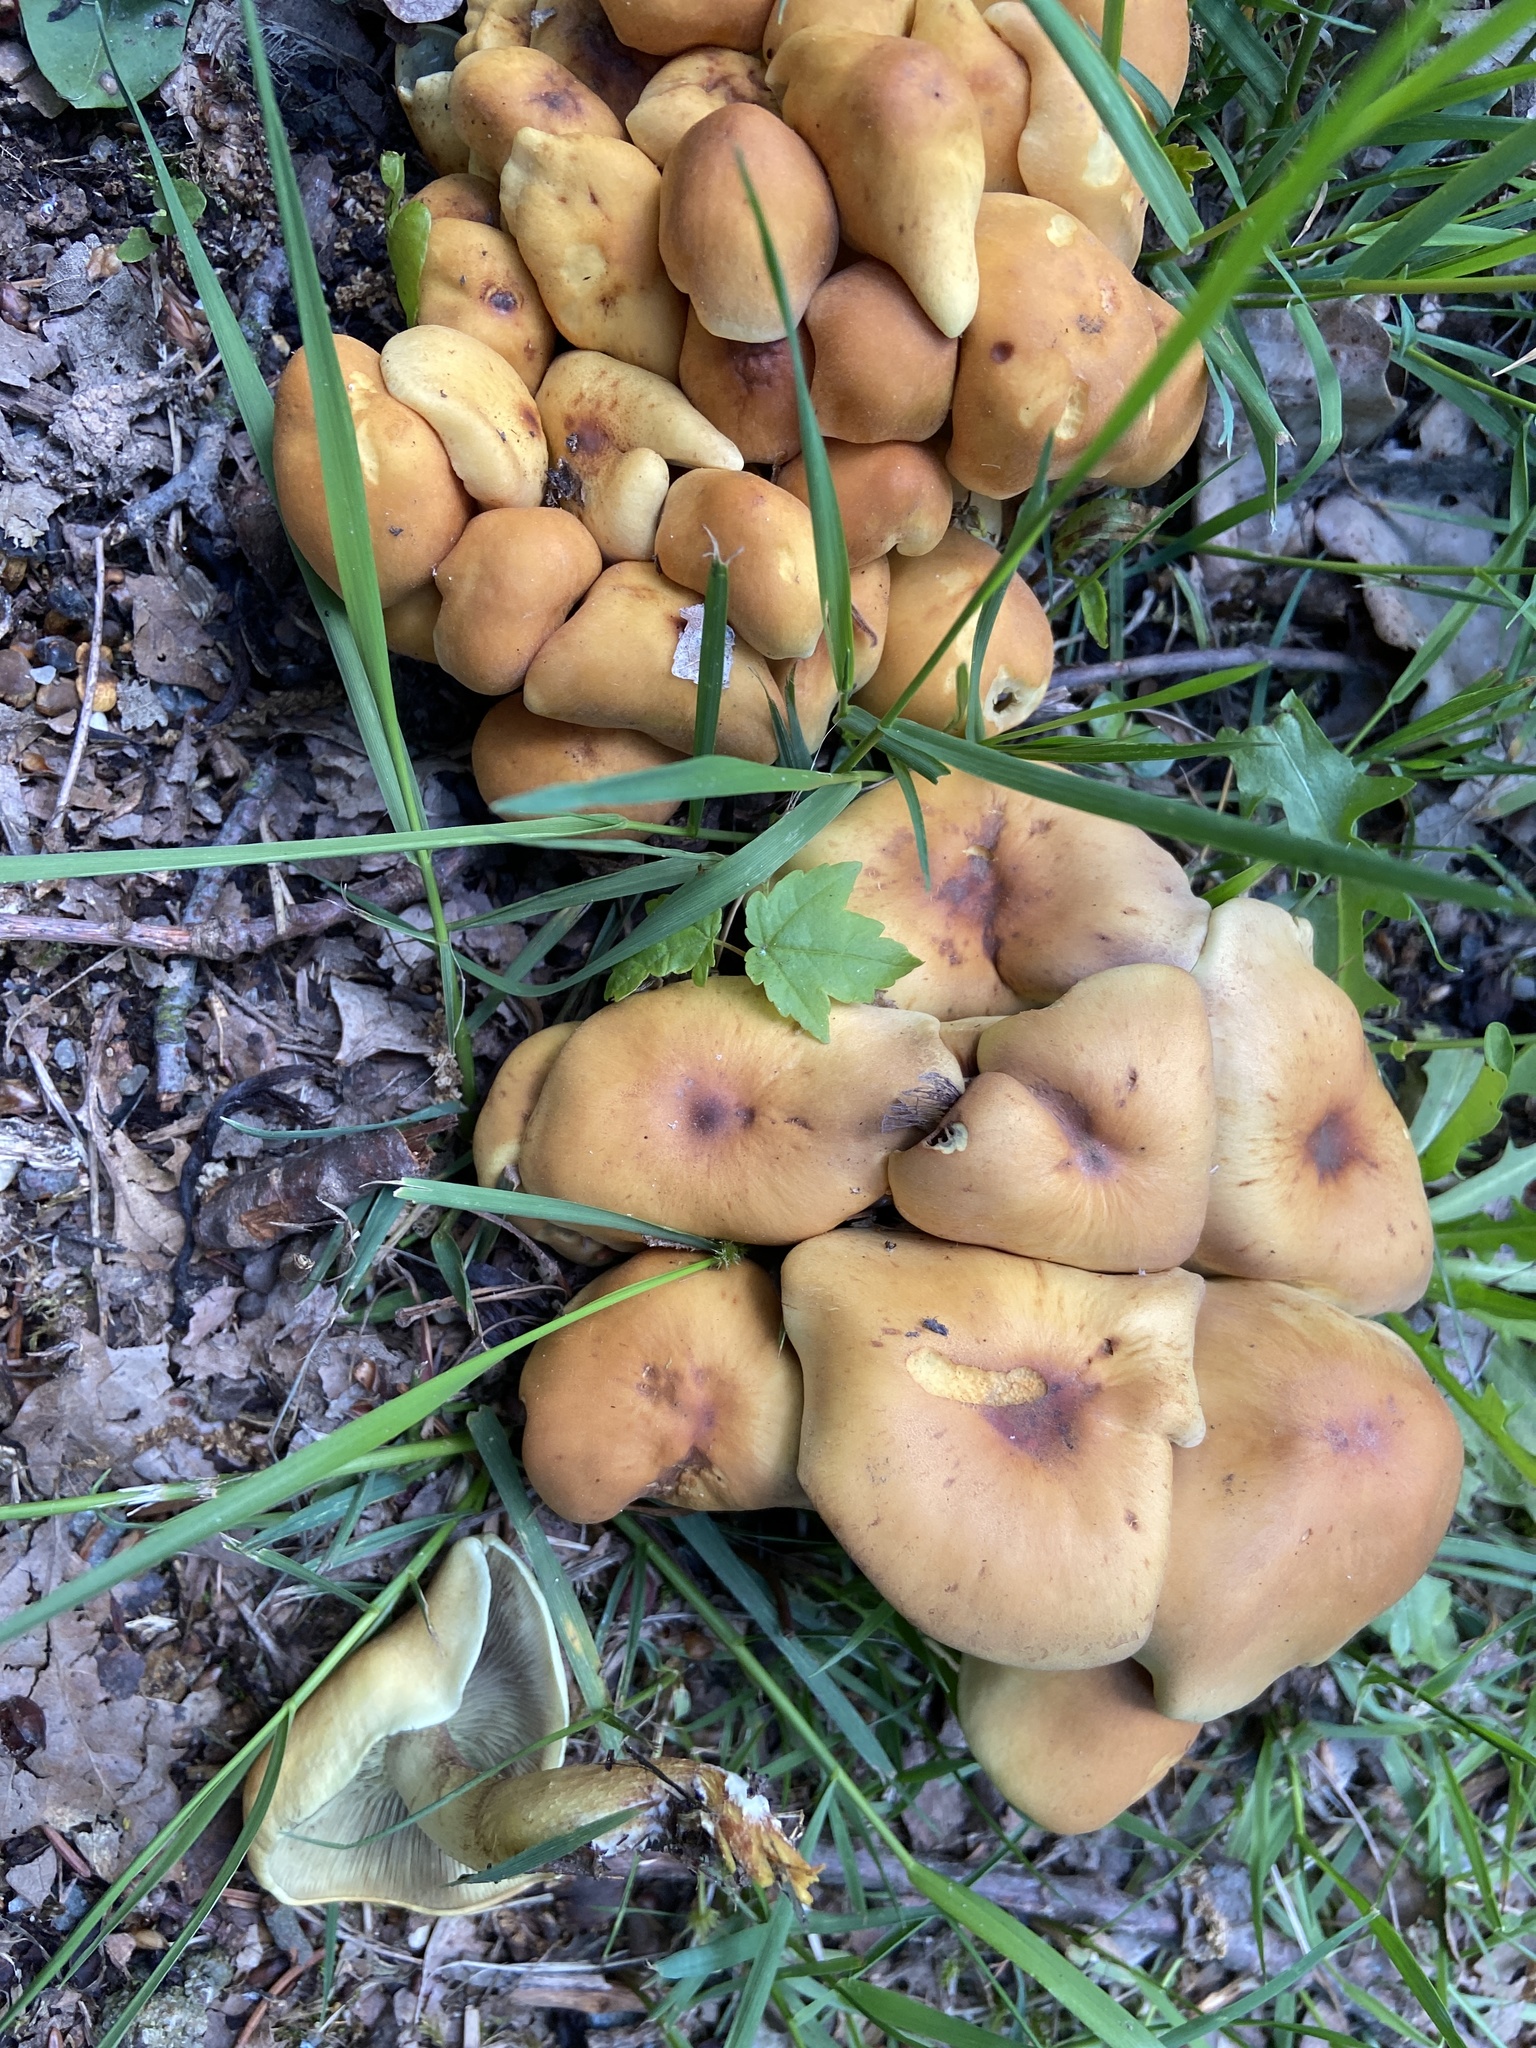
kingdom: Fungi
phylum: Basidiomycota
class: Agaricomycetes
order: Agaricales
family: Strophariaceae
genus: Hypholoma
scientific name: Hypholoma fasciculare
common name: Sulphur tuft
